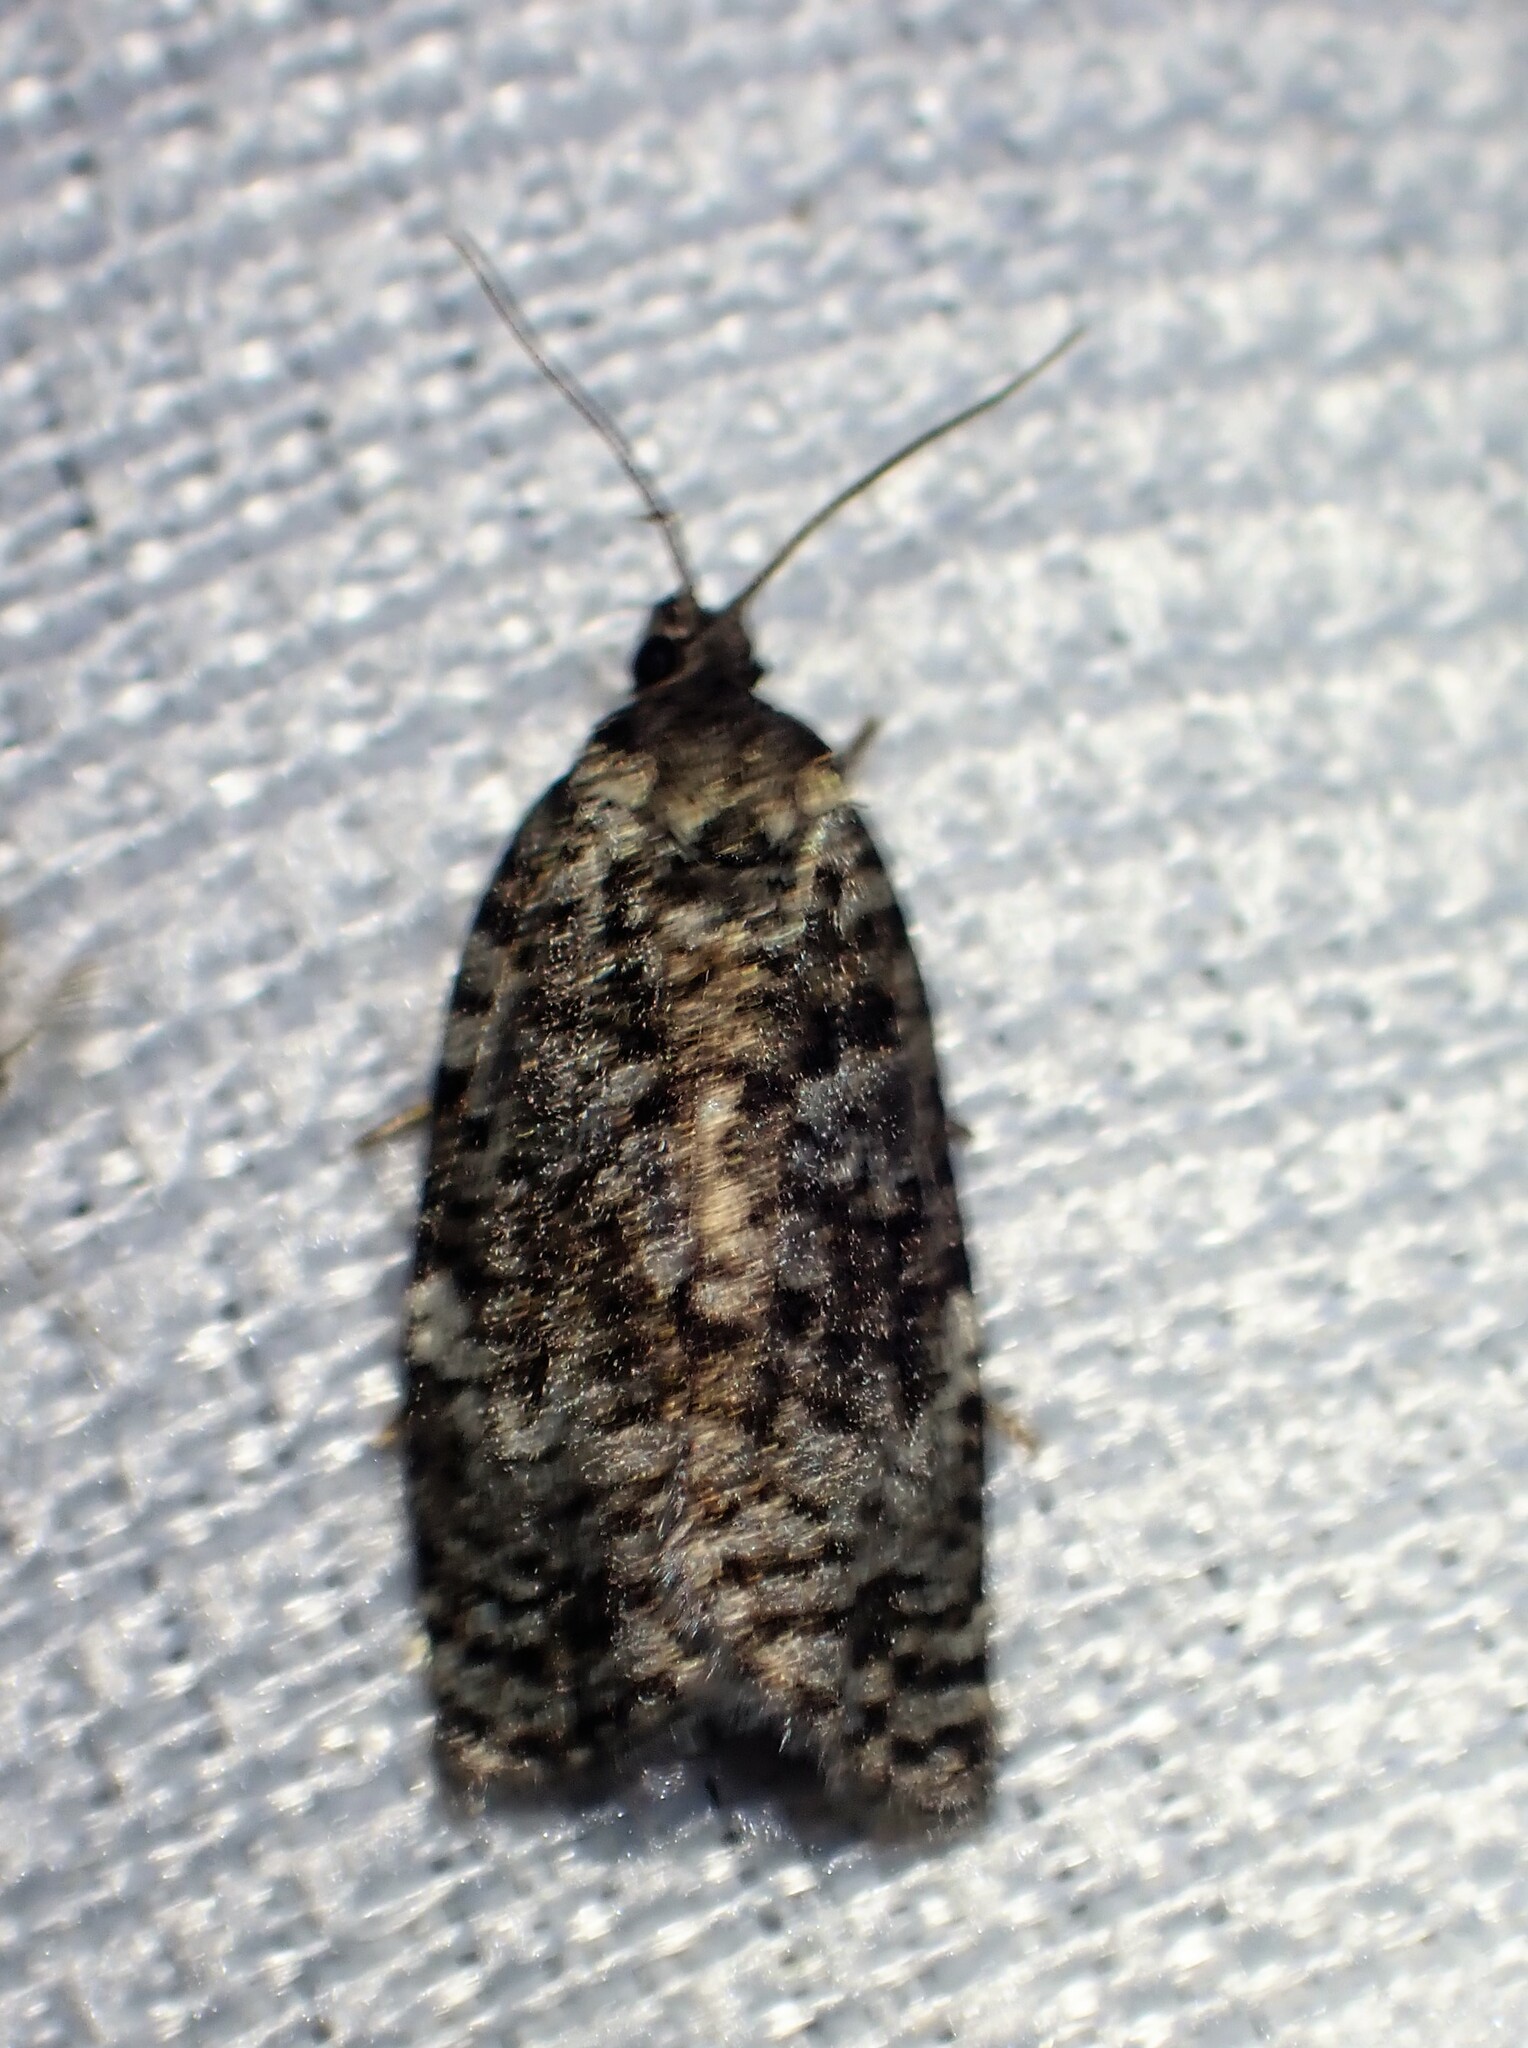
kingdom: Animalia
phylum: Arthropoda
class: Insecta
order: Lepidoptera
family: Tortricidae
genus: Choristoneura
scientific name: Choristoneura fumiferana
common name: Spruce budworm
